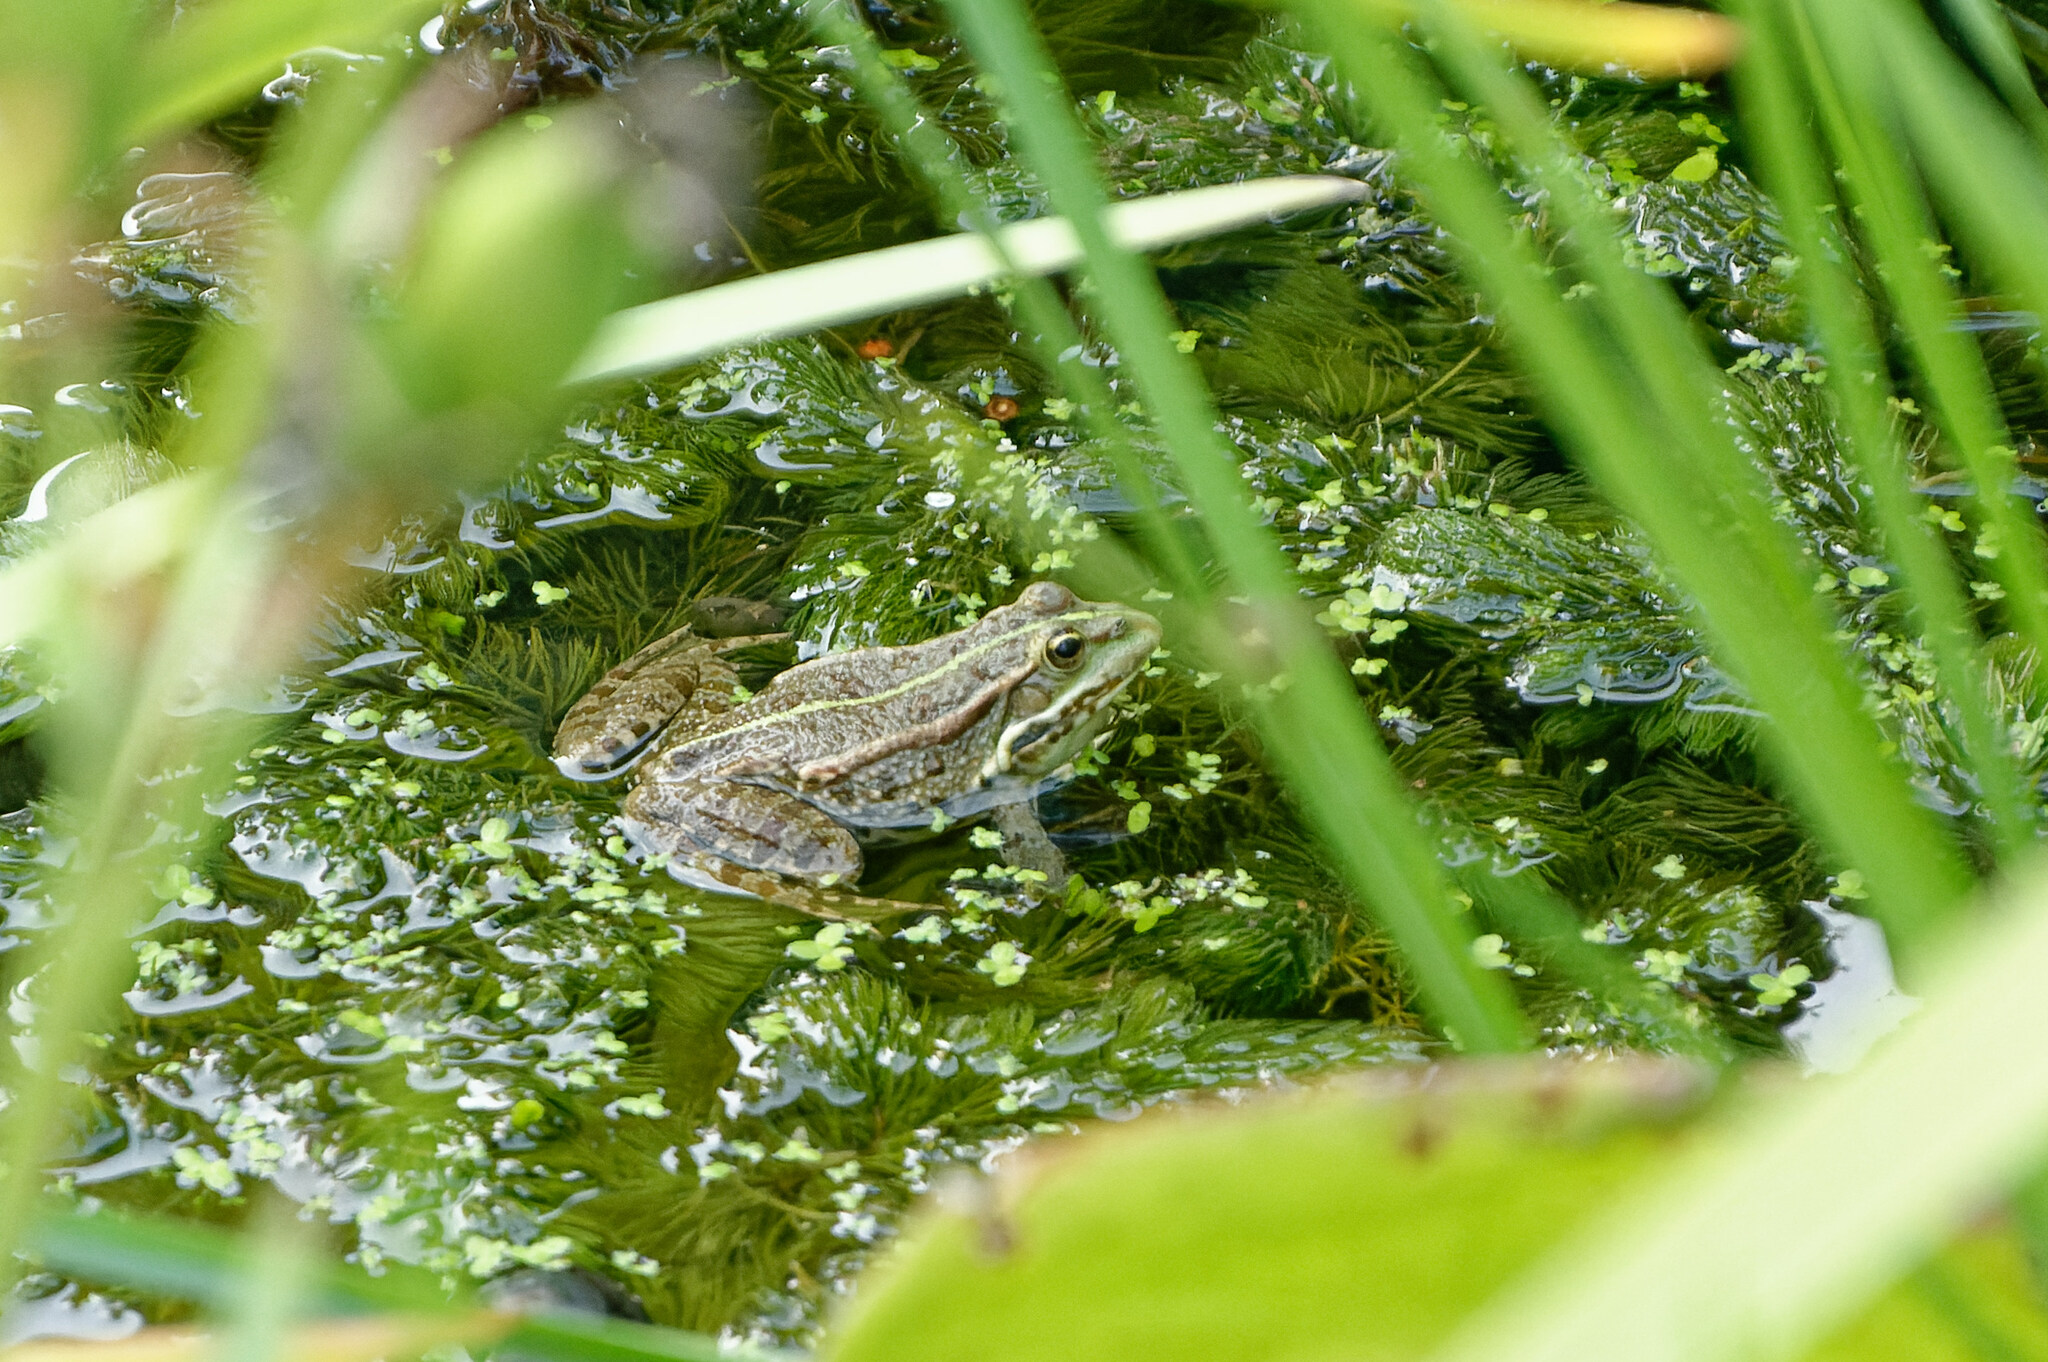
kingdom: Animalia
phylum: Chordata
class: Amphibia
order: Anura
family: Ranidae
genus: Pelophylax
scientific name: Pelophylax
